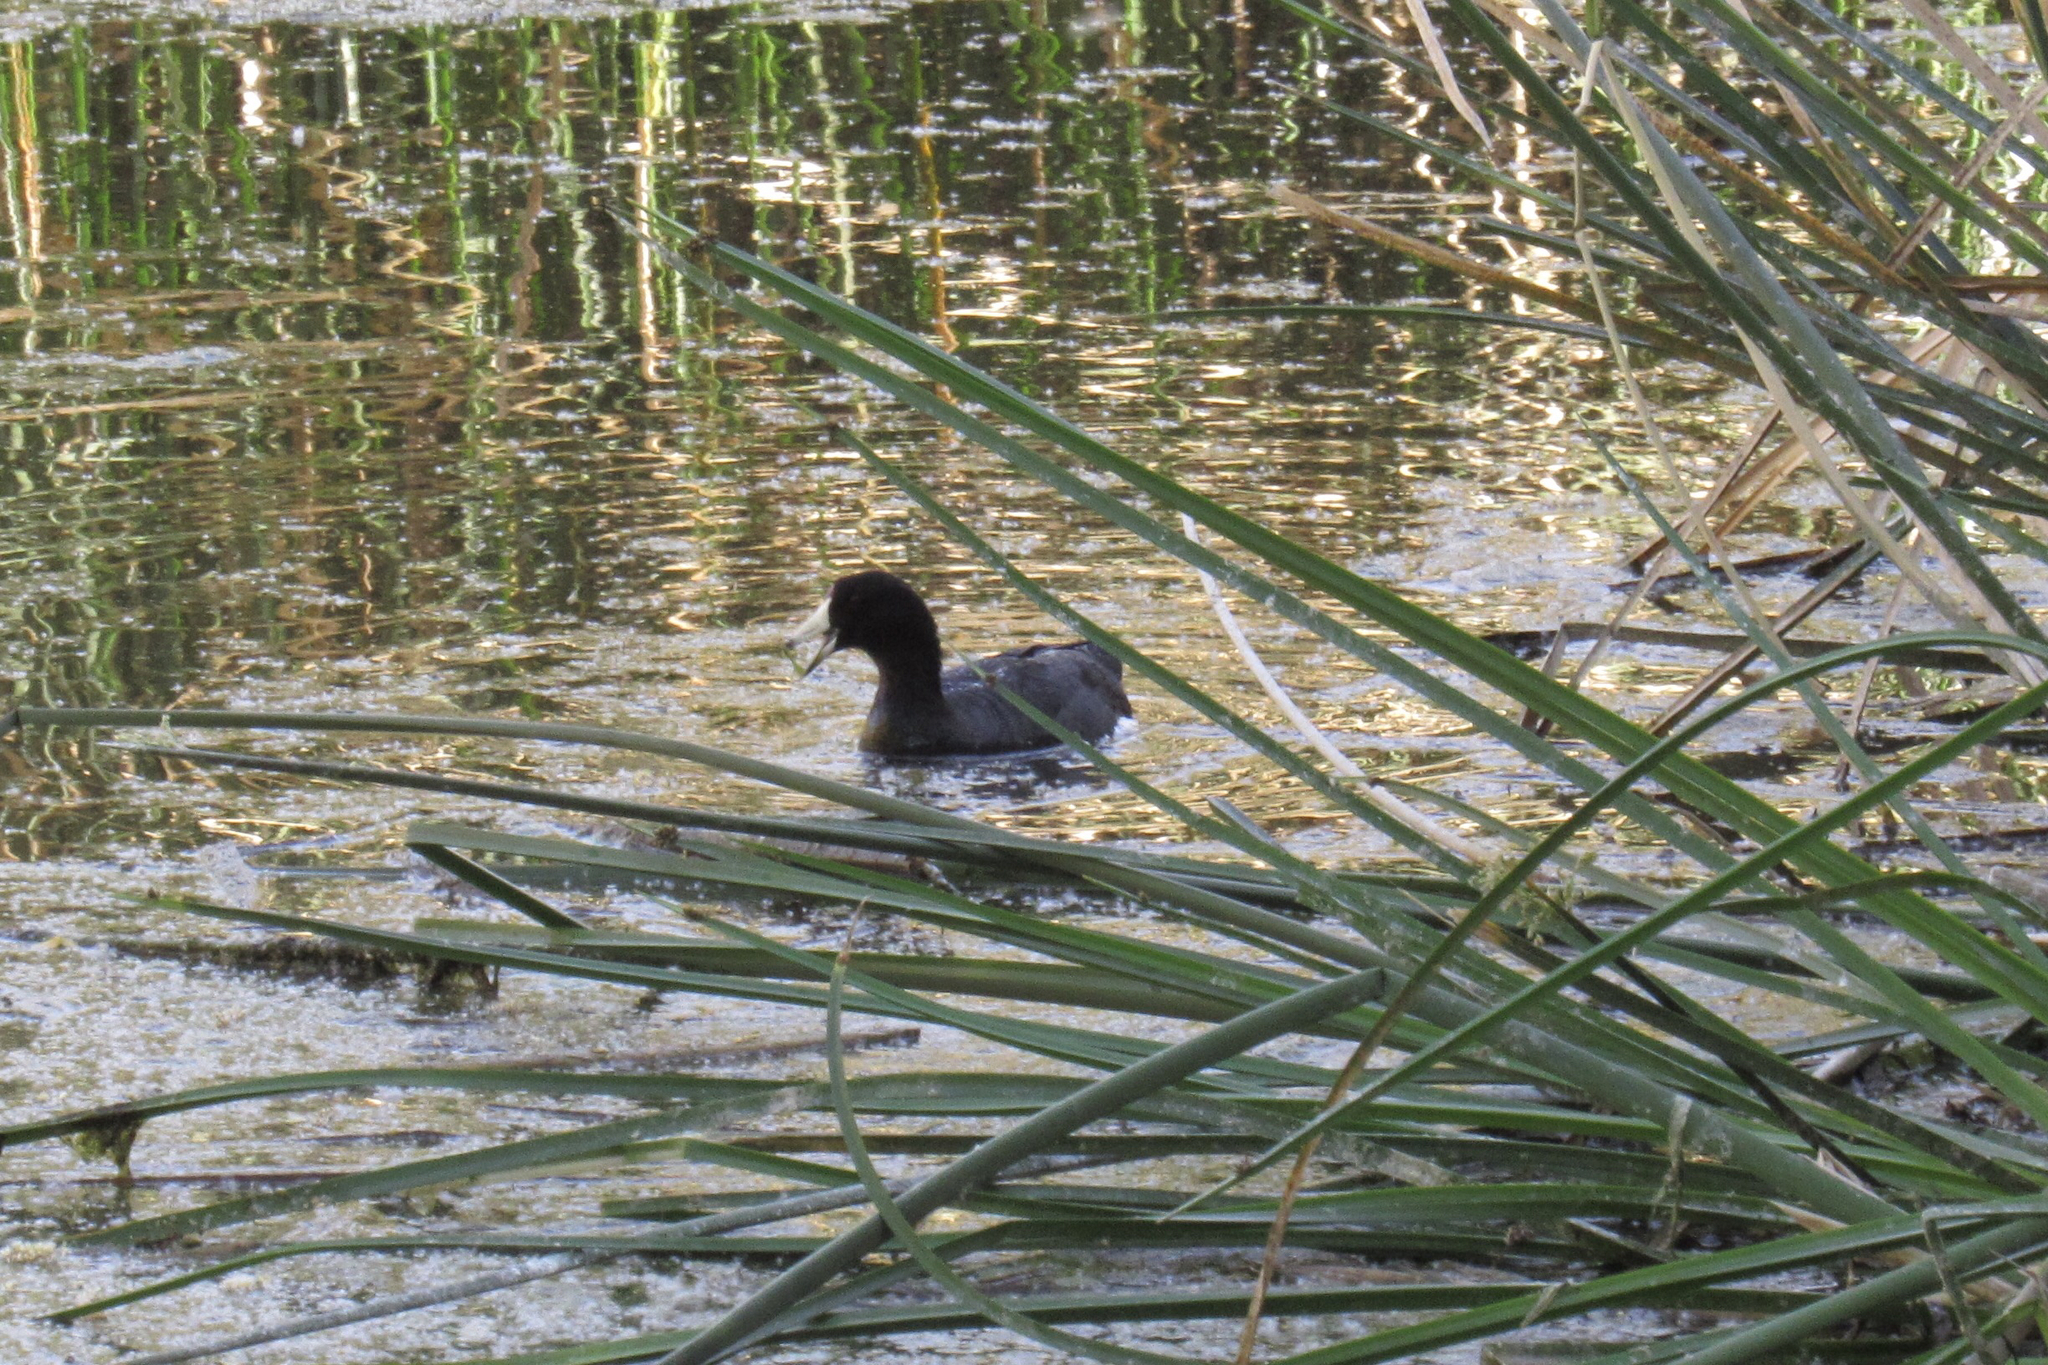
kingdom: Animalia
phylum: Chordata
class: Aves
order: Gruiformes
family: Rallidae
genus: Fulica
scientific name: Fulica americana
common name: American coot
